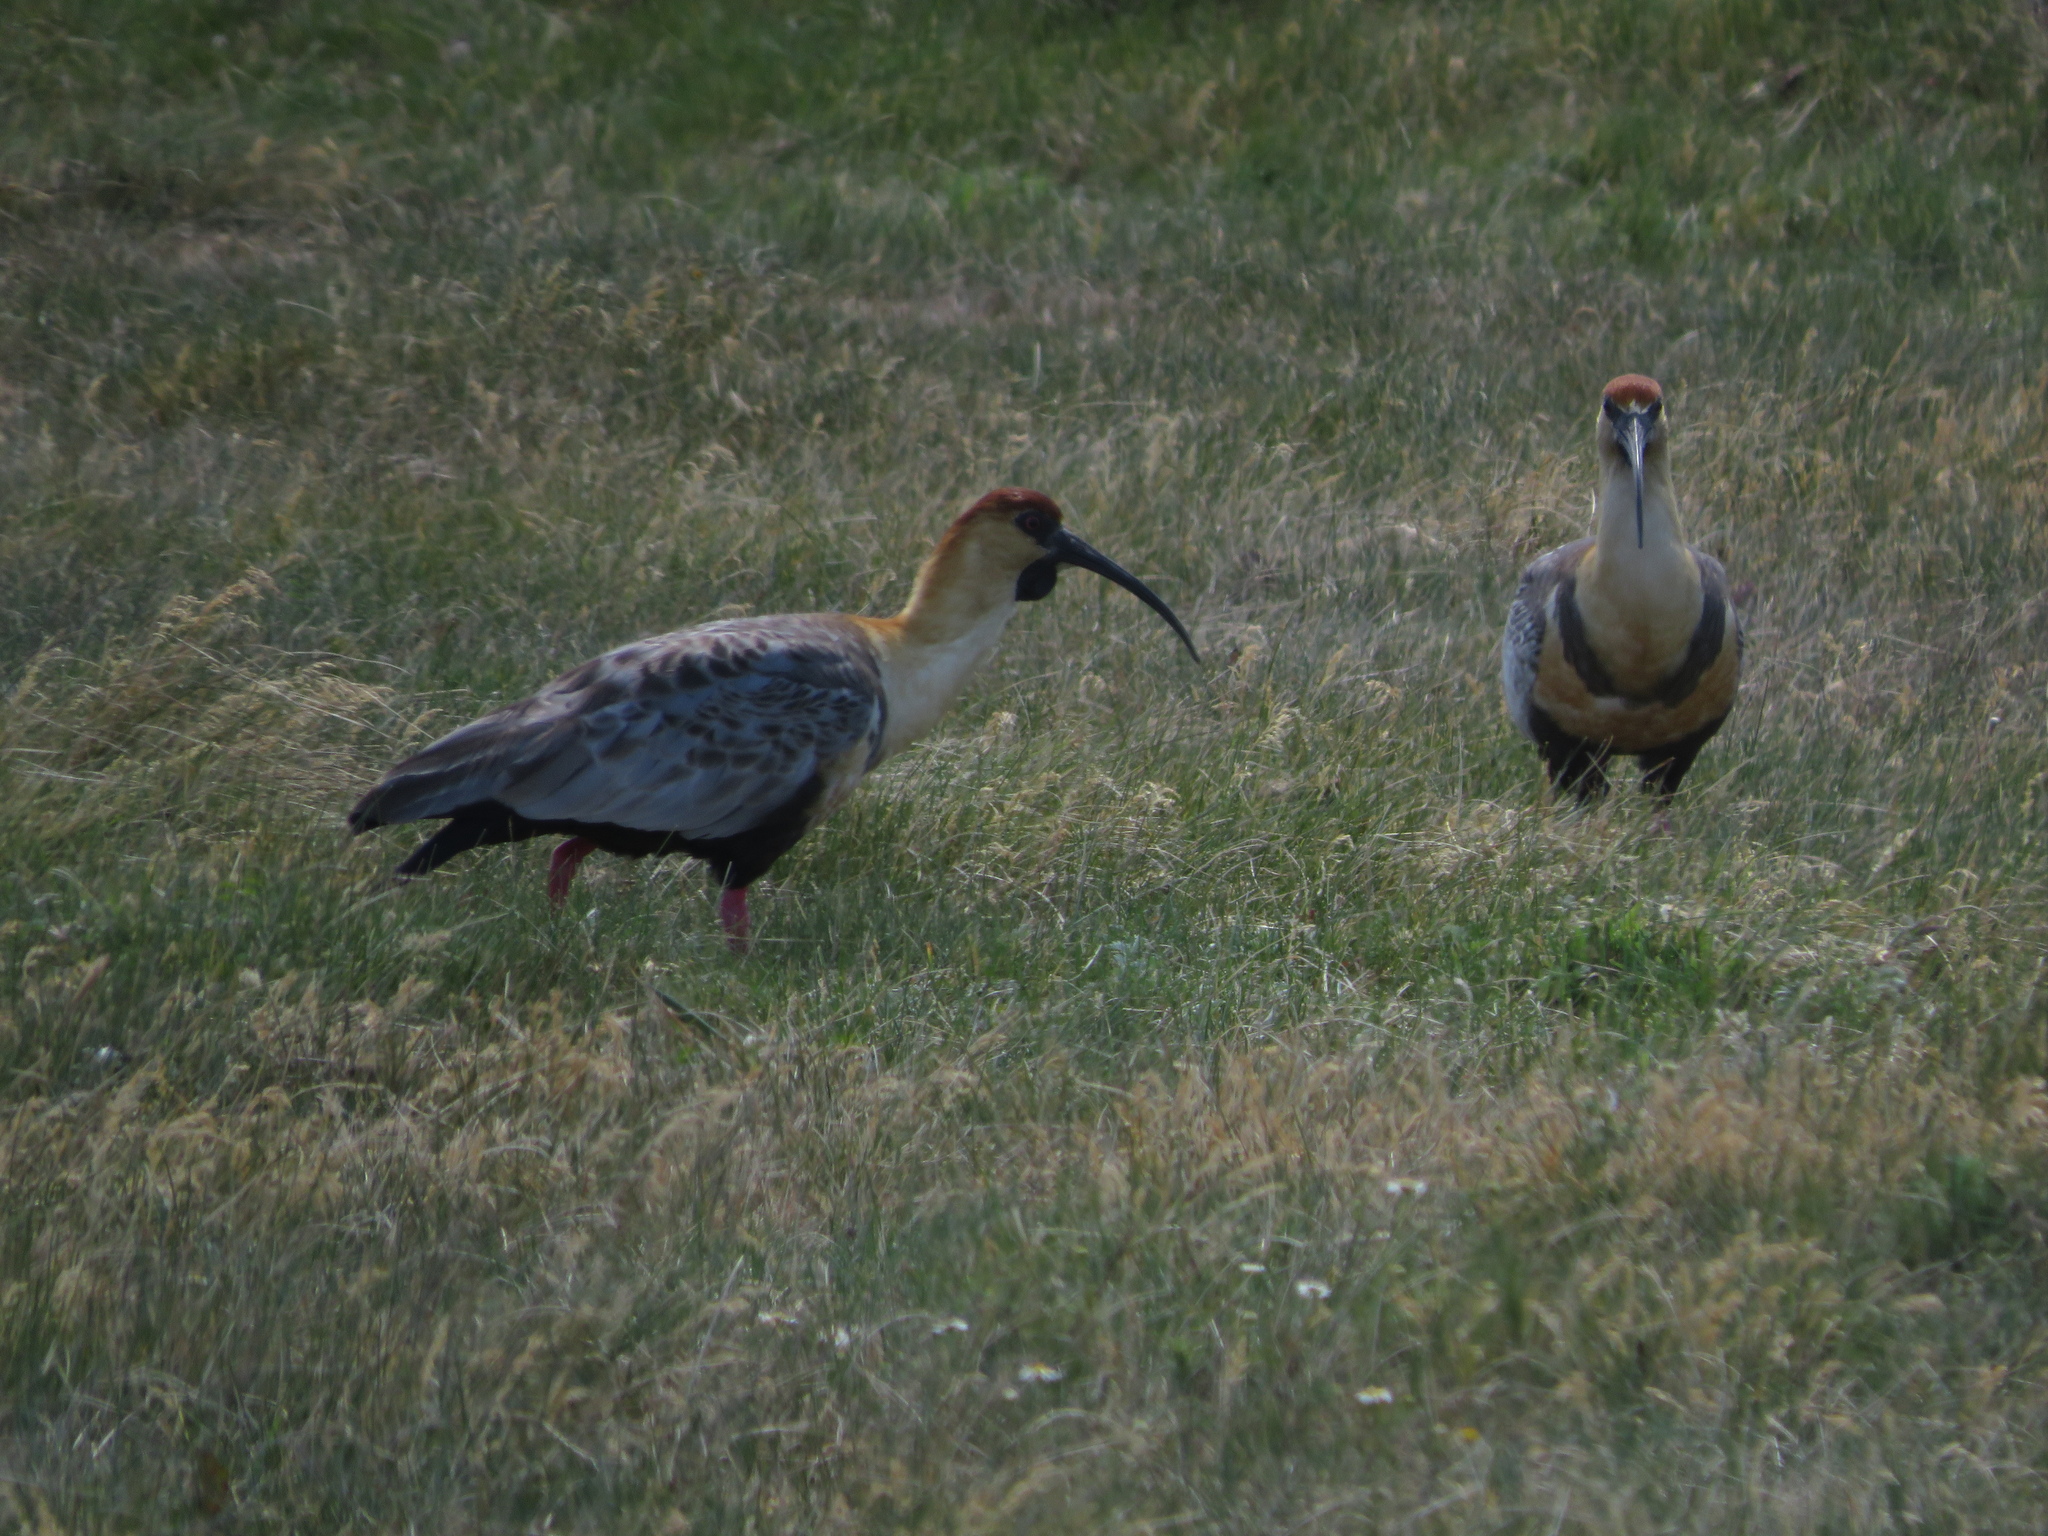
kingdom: Animalia
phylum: Chordata
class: Aves
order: Pelecaniformes
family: Threskiornithidae
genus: Theristicus
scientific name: Theristicus melanopis
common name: Black-faced ibis
